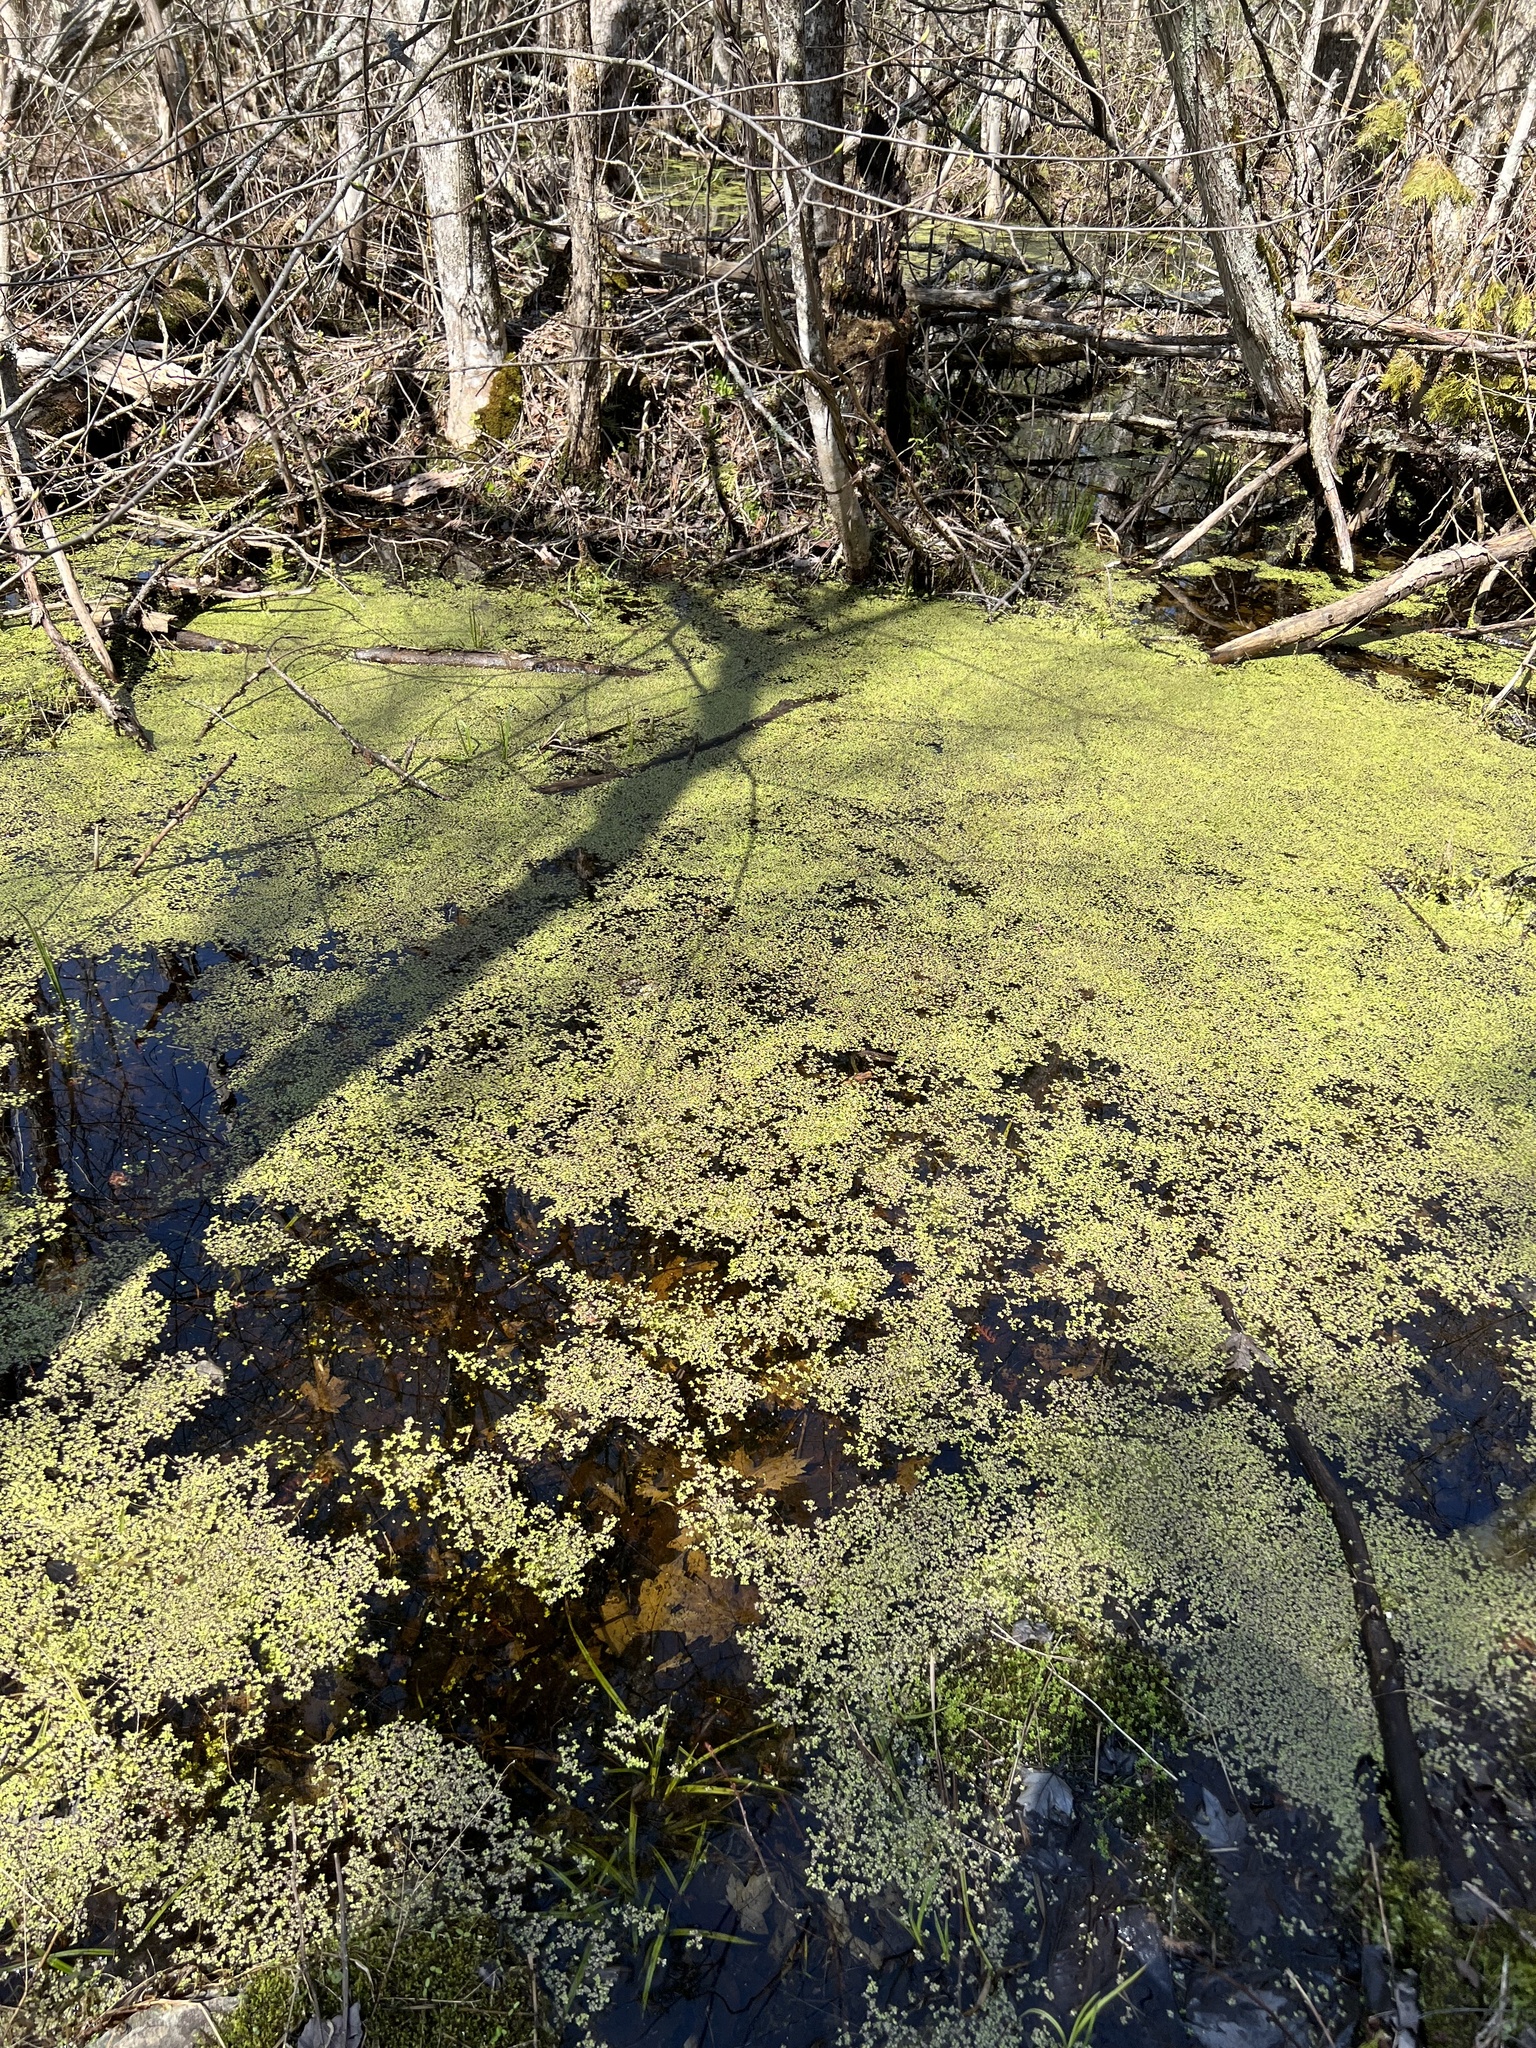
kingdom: Plantae
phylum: Tracheophyta
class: Liliopsida
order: Alismatales
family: Araceae
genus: Lemna
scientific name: Lemna minor
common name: Common duckweed
